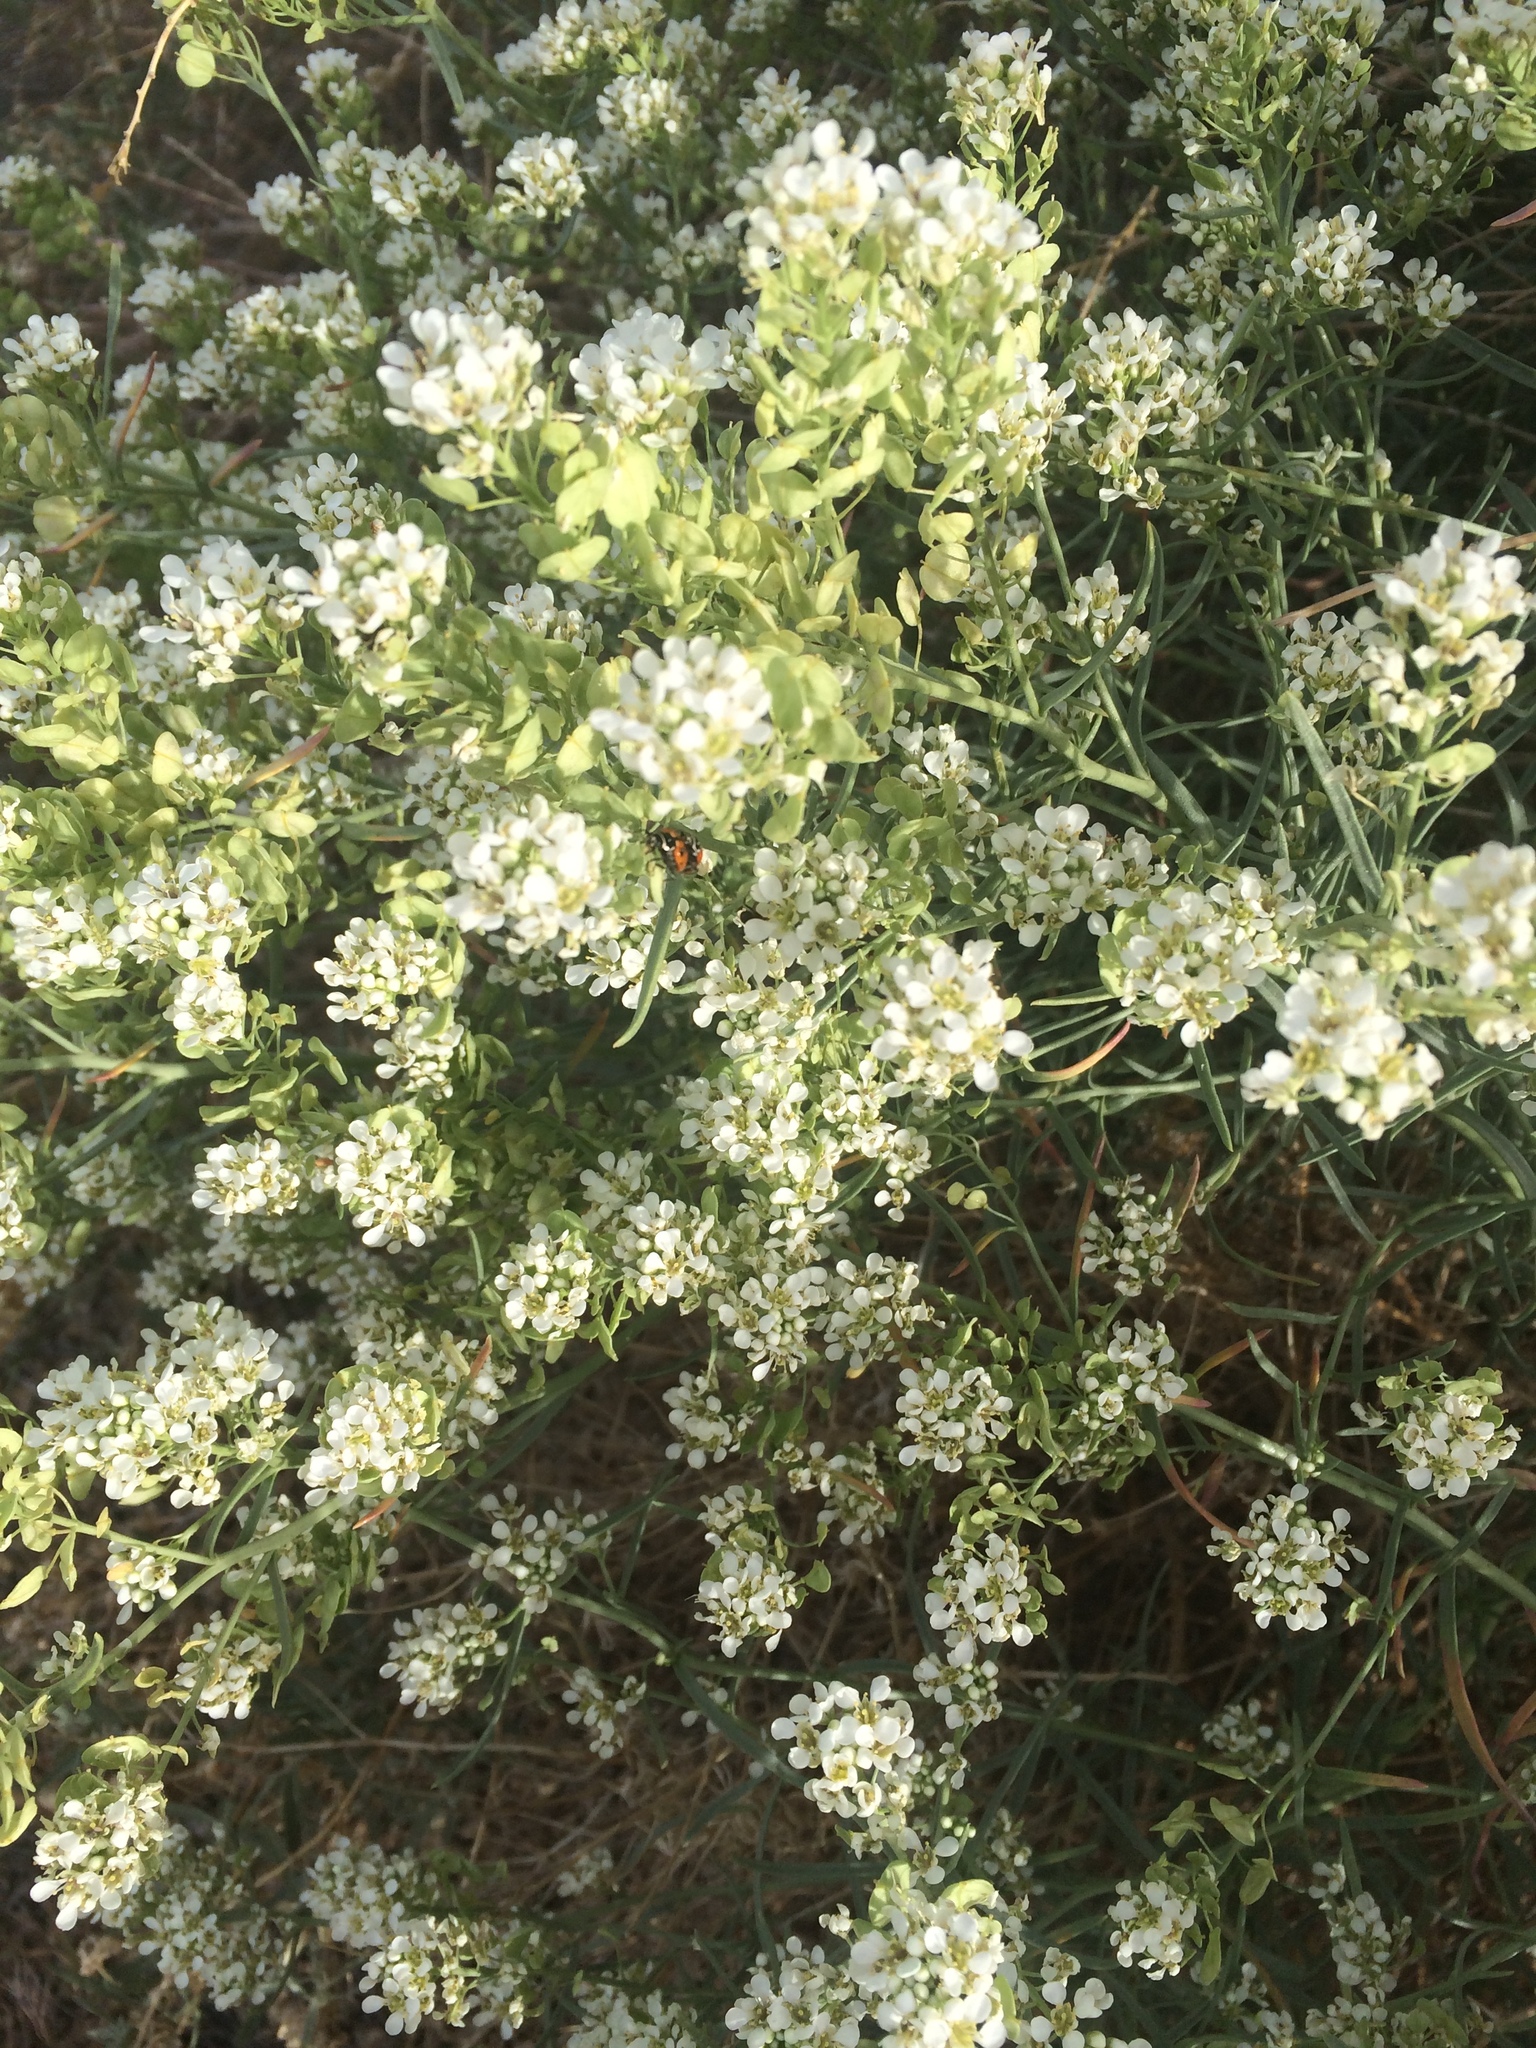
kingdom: Plantae
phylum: Tracheophyta
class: Magnoliopsida
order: Brassicales
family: Brassicaceae
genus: Lepidium
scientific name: Lepidium fremontii
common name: Fremont's pepperwort
